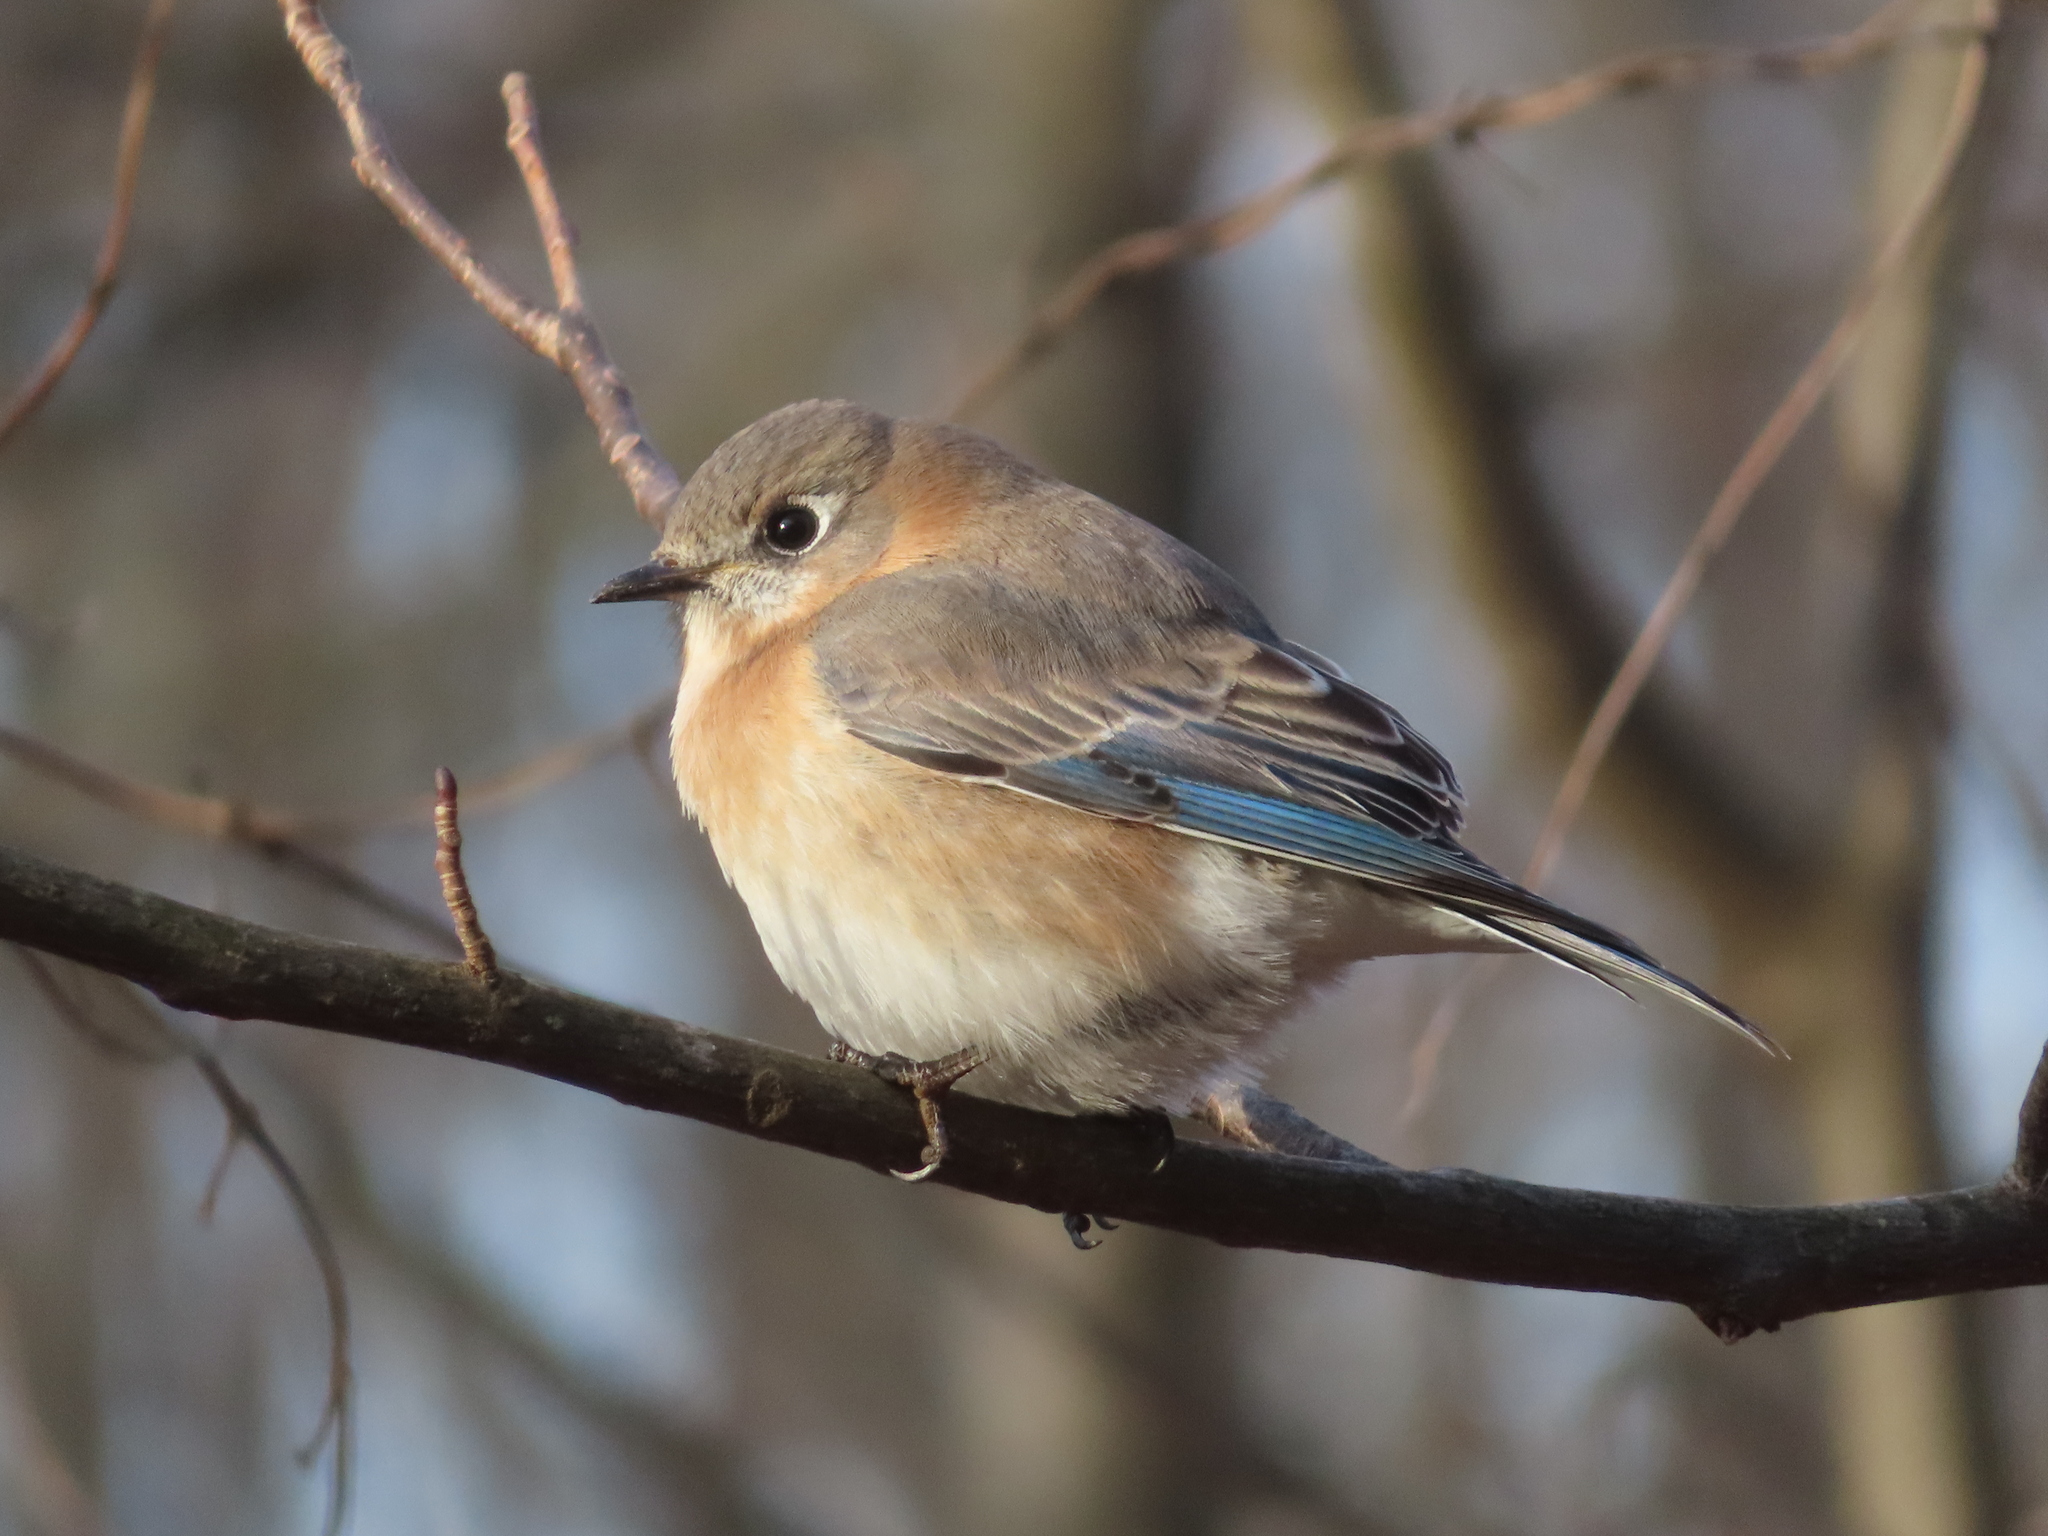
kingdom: Animalia
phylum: Chordata
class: Aves
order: Passeriformes
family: Turdidae
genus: Sialia
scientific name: Sialia sialis
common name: Eastern bluebird
